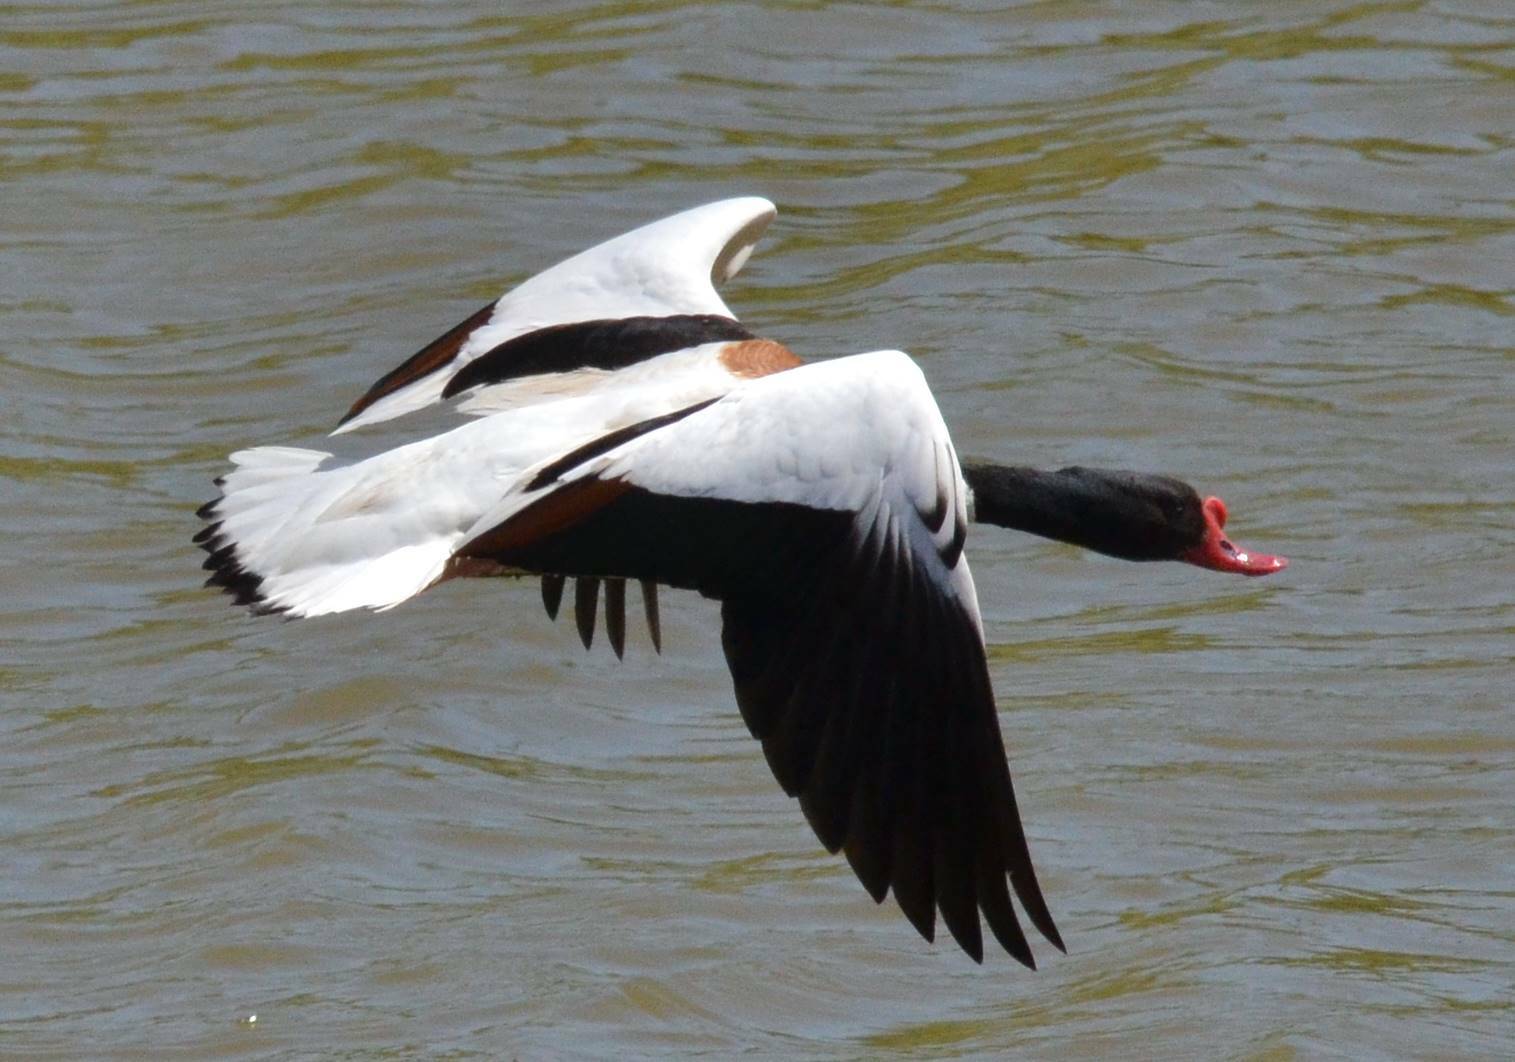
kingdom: Animalia
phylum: Chordata
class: Aves
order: Anseriformes
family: Anatidae
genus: Tadorna
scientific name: Tadorna tadorna
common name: Common shelduck
